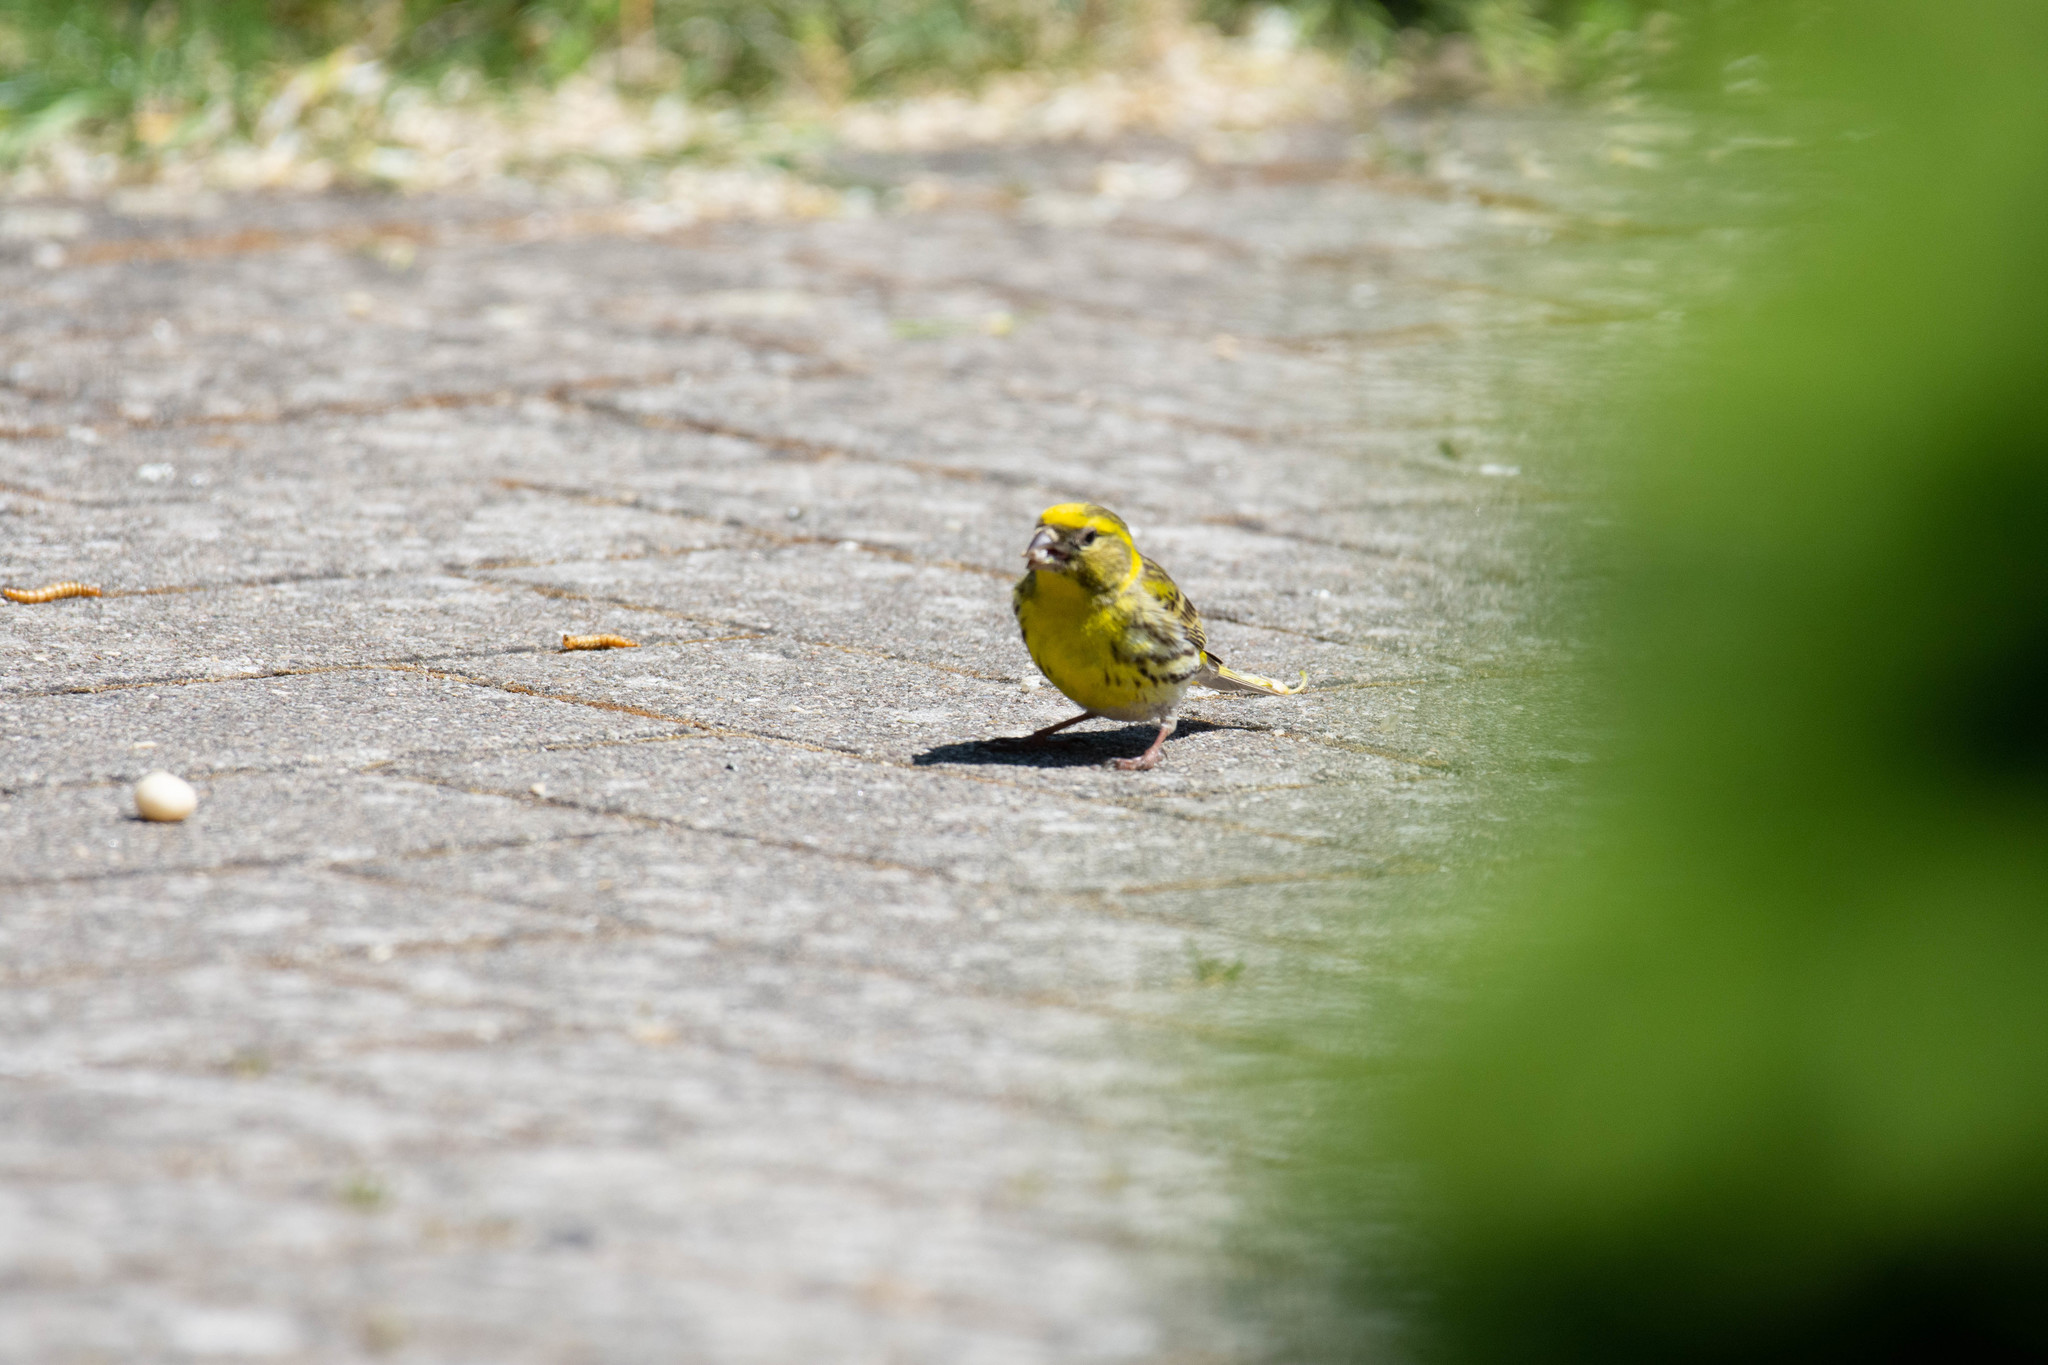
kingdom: Animalia
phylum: Chordata
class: Aves
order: Passeriformes
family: Fringillidae
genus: Serinus
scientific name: Serinus serinus
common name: European serin
